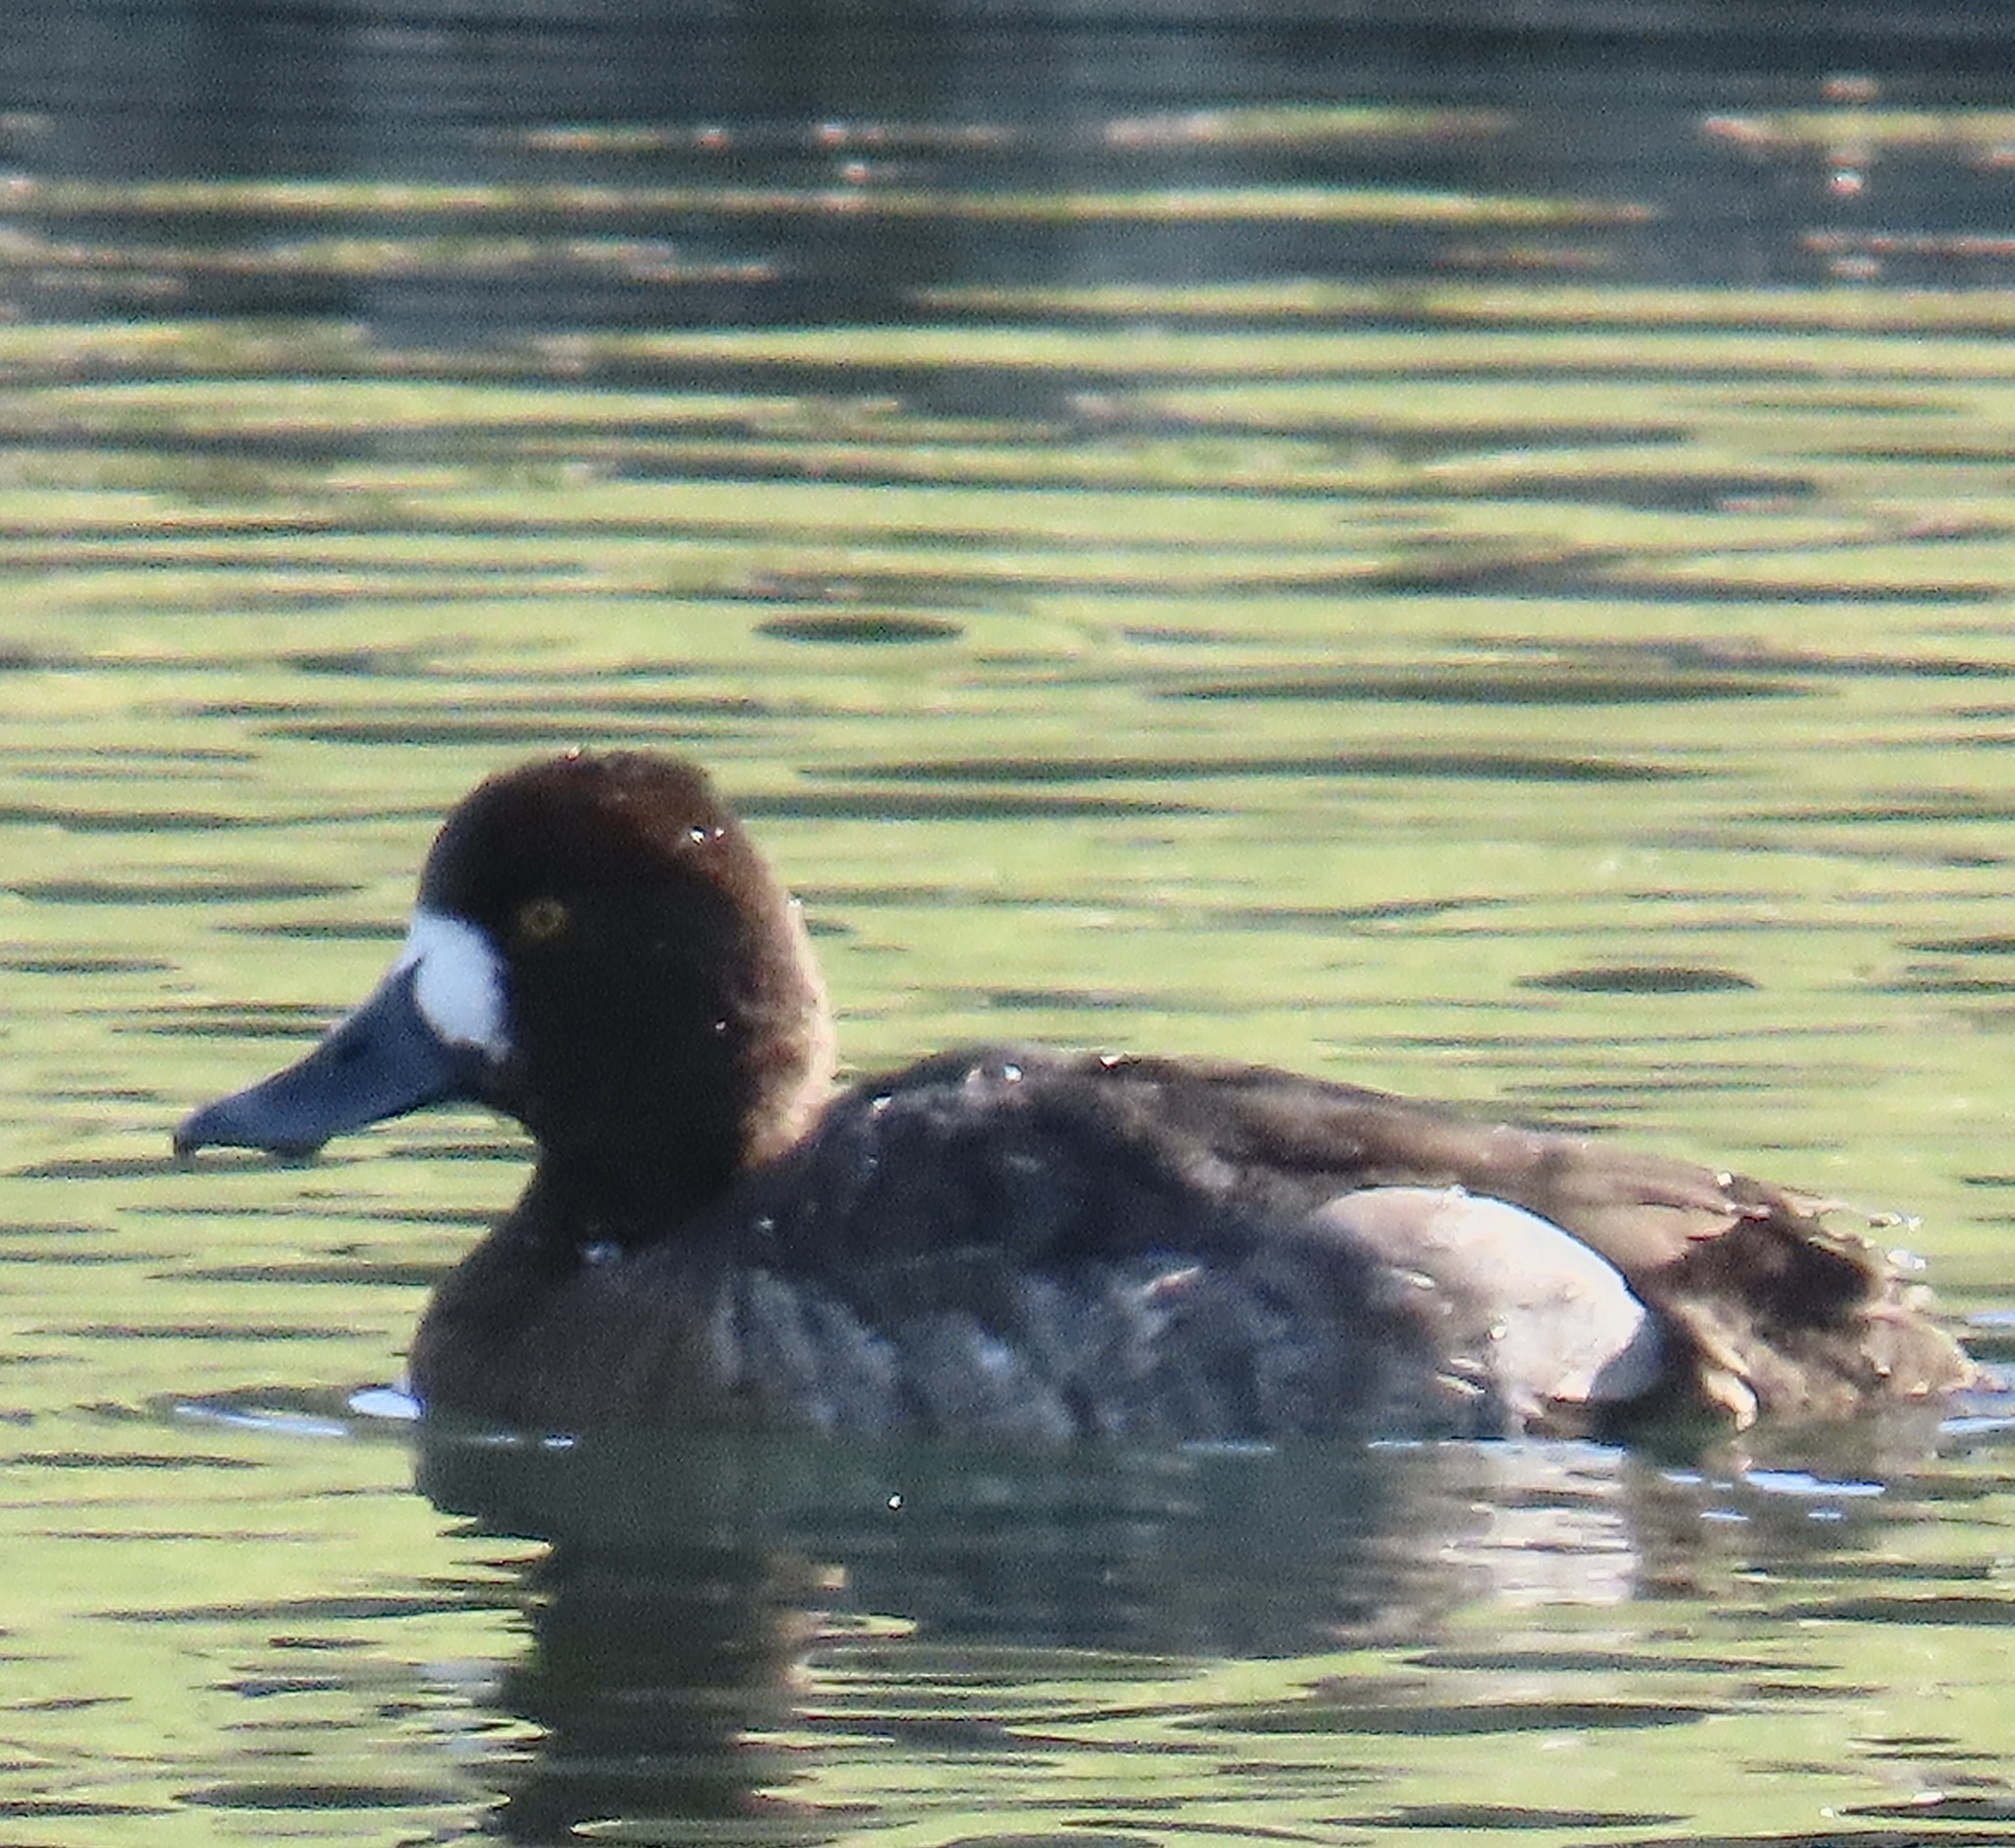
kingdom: Animalia
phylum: Chordata
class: Aves
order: Anseriformes
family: Anatidae
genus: Aythya
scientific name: Aythya affinis
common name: Lesser scaup
